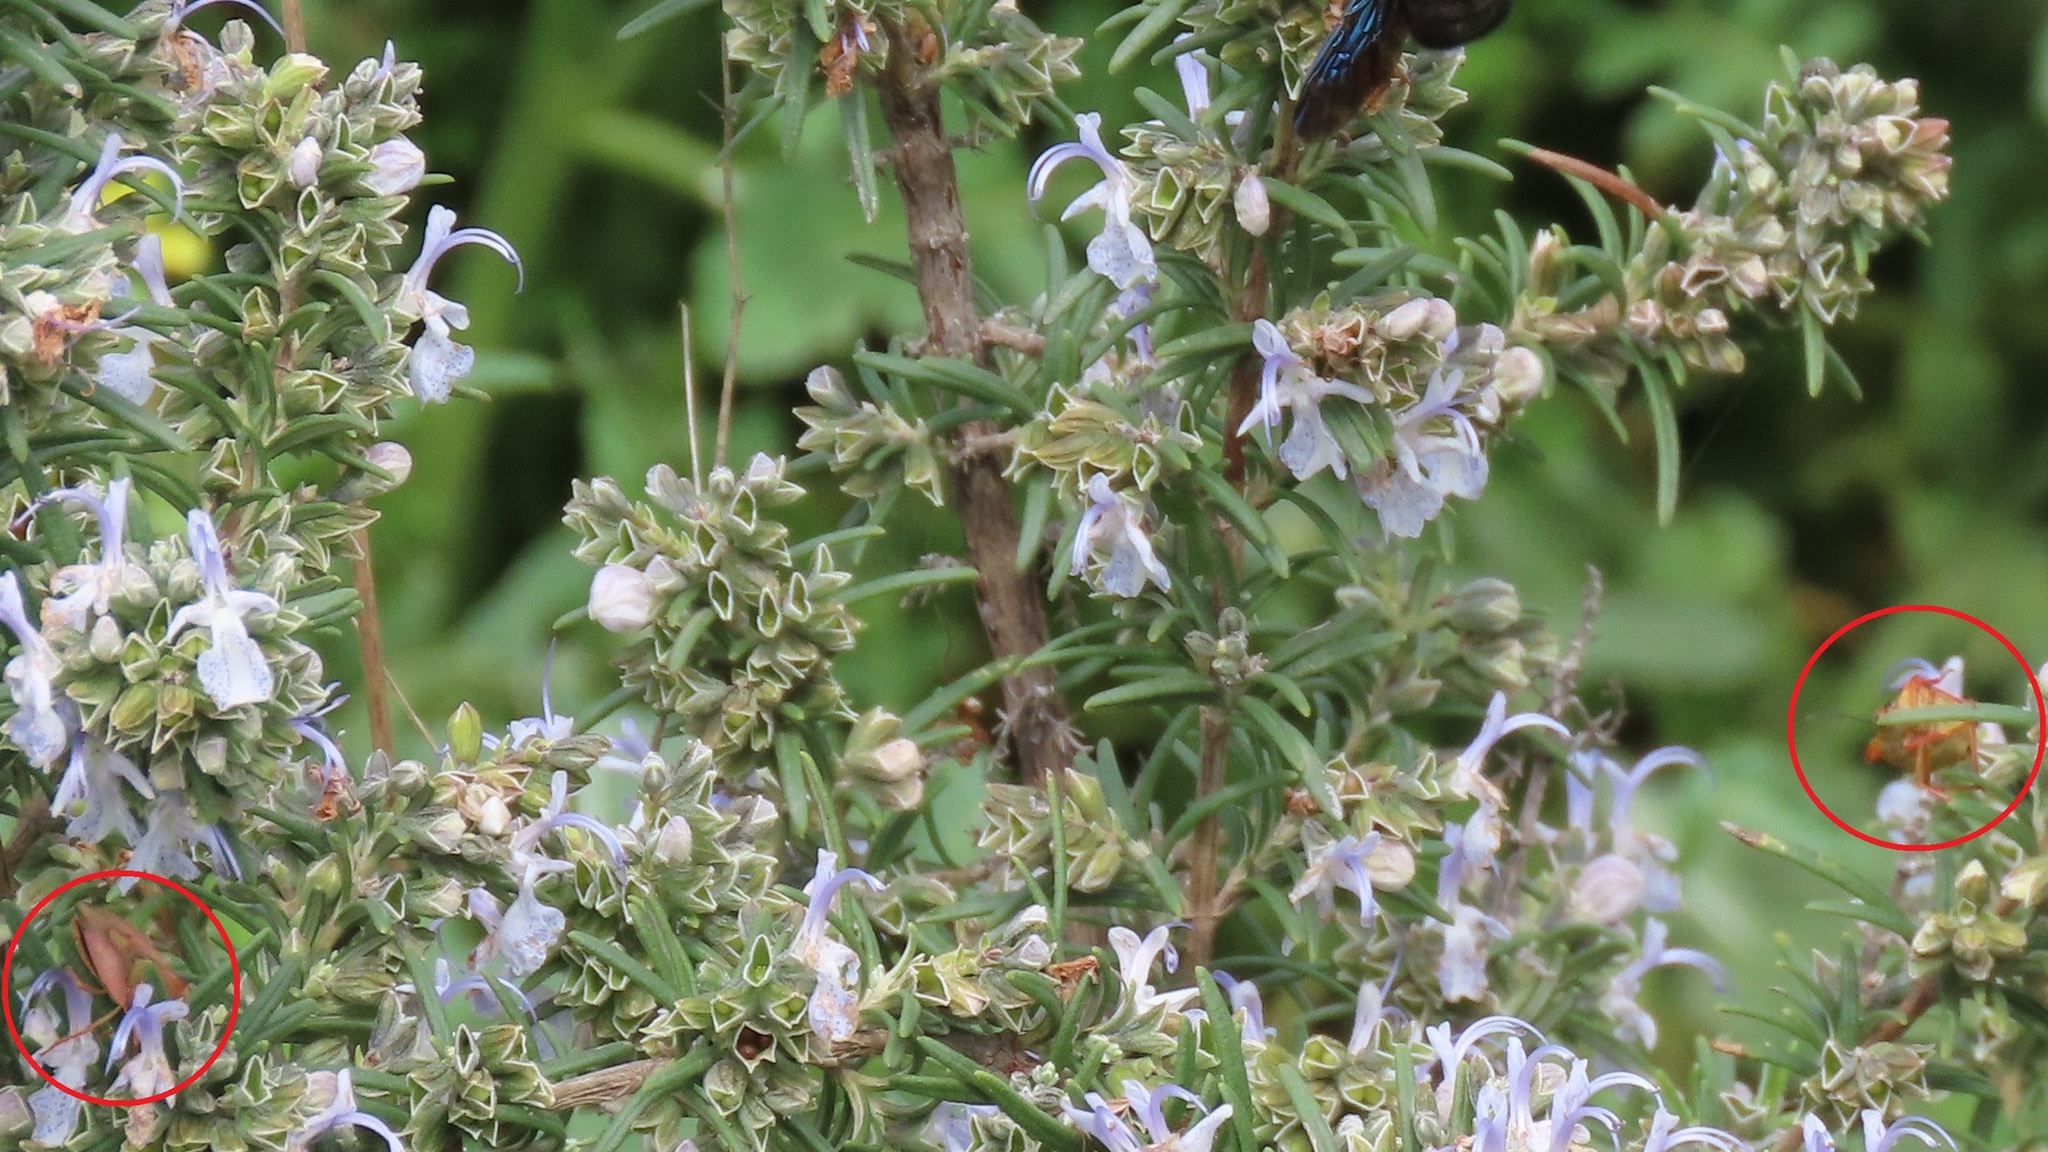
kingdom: Animalia
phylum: Arthropoda
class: Insecta
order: Hemiptera
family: Pentatomidae
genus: Carpocoris
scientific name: Carpocoris mediterraneus
